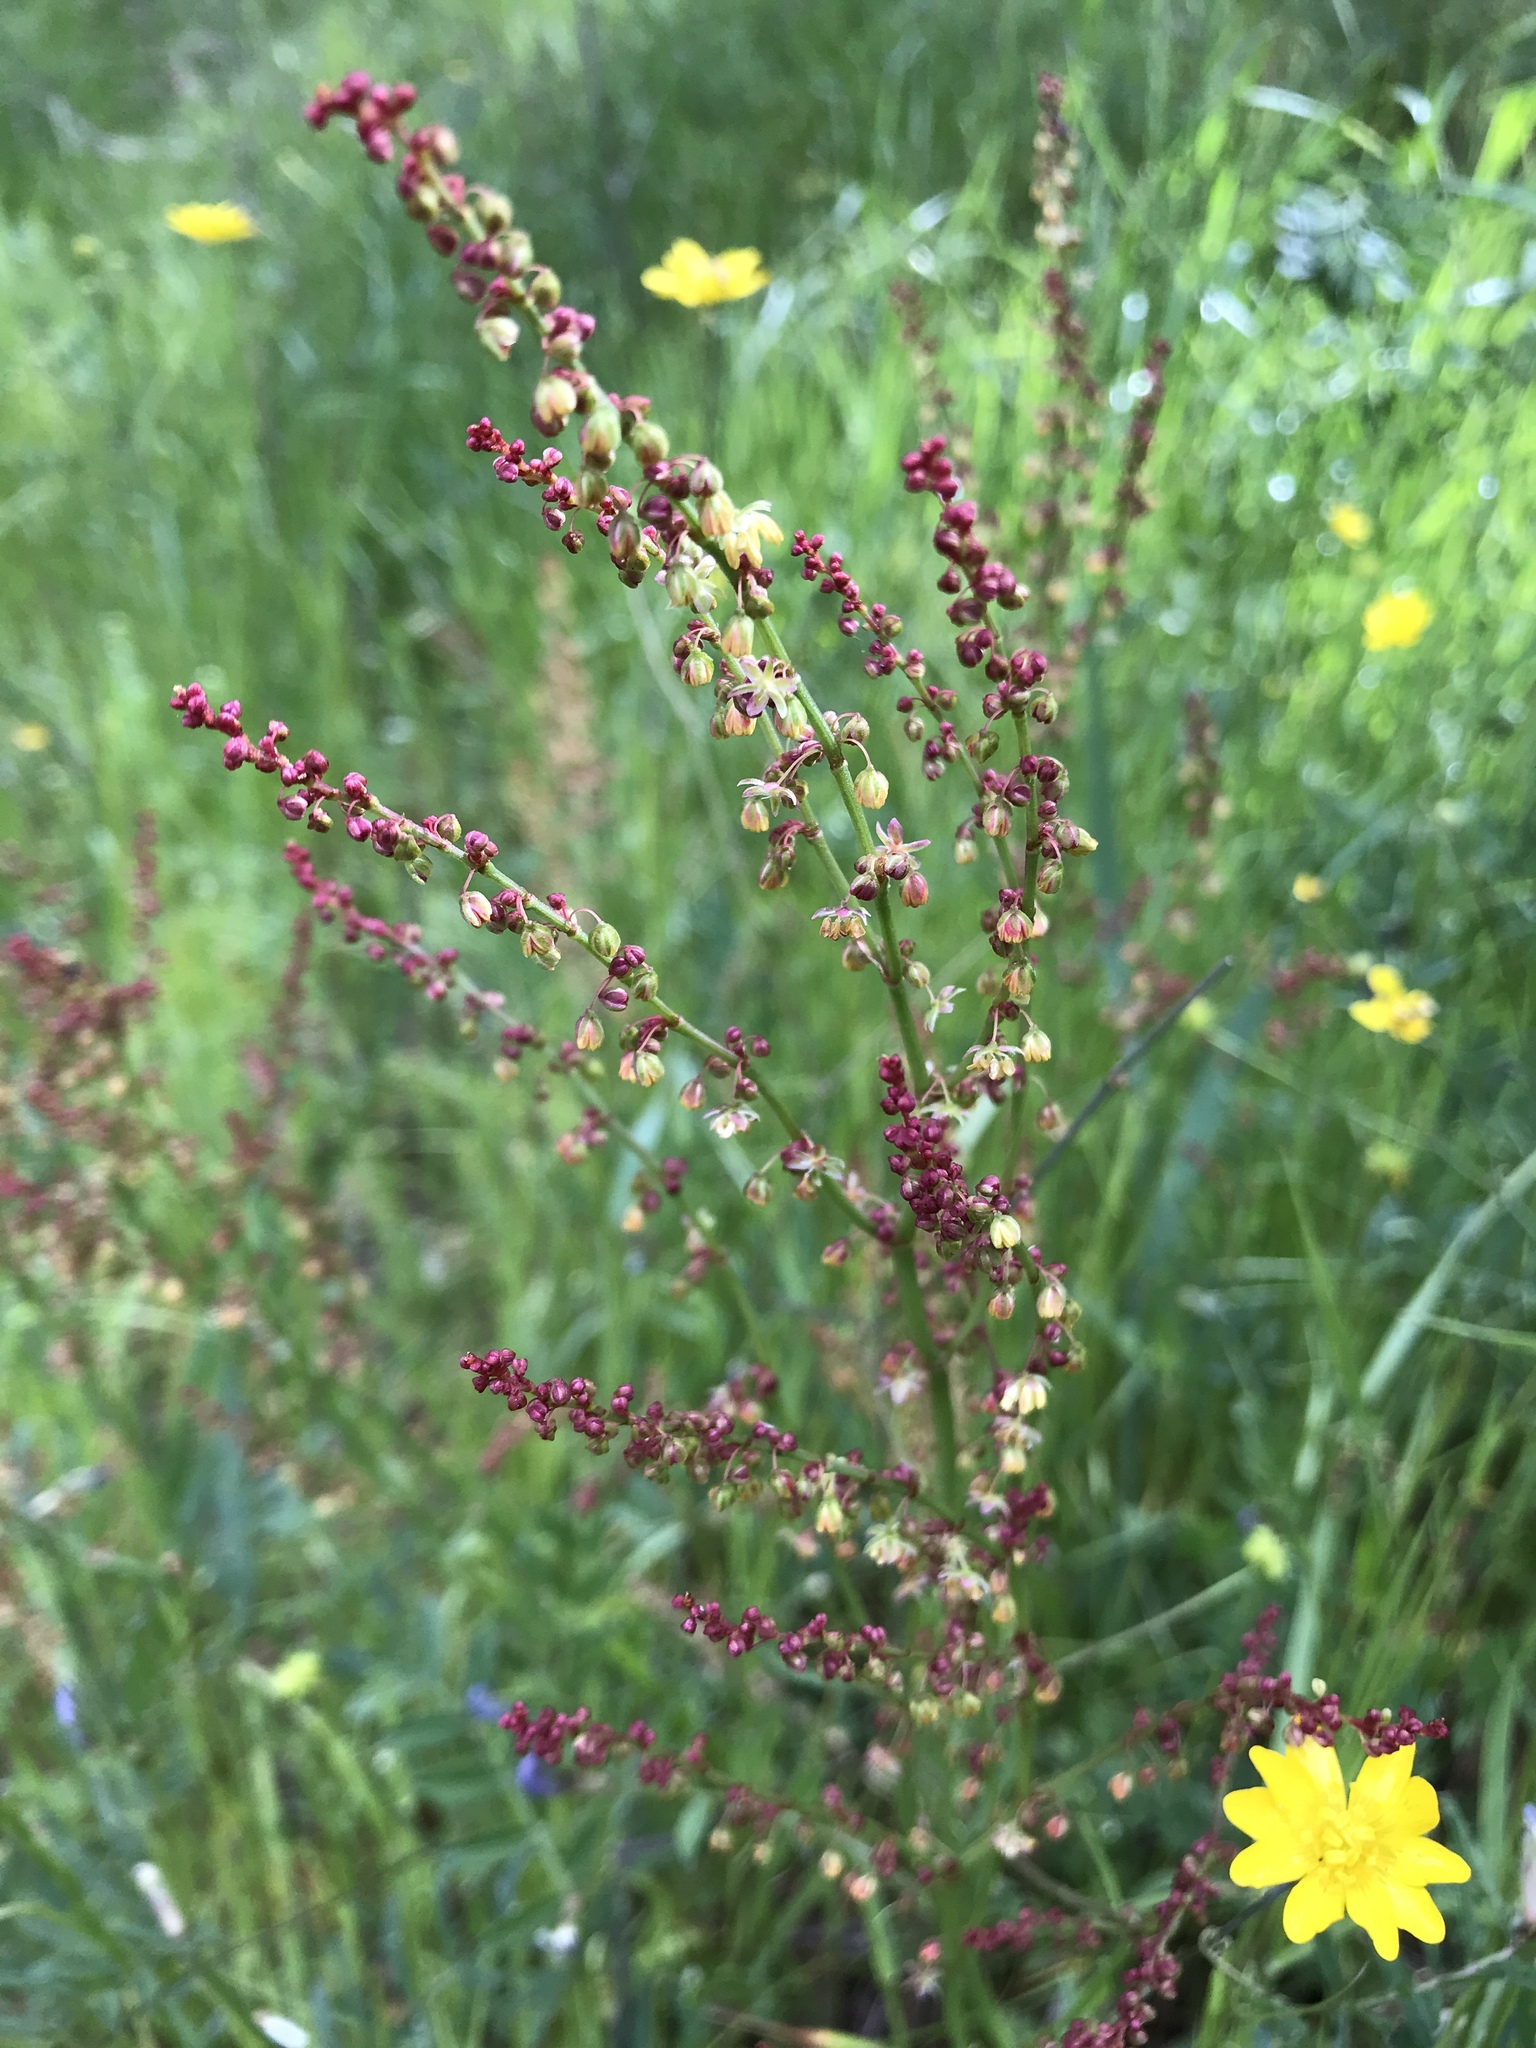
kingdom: Plantae
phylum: Tracheophyta
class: Magnoliopsida
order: Caryophyllales
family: Polygonaceae
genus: Rumex
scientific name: Rumex acetosella
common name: Common sheep sorrel
